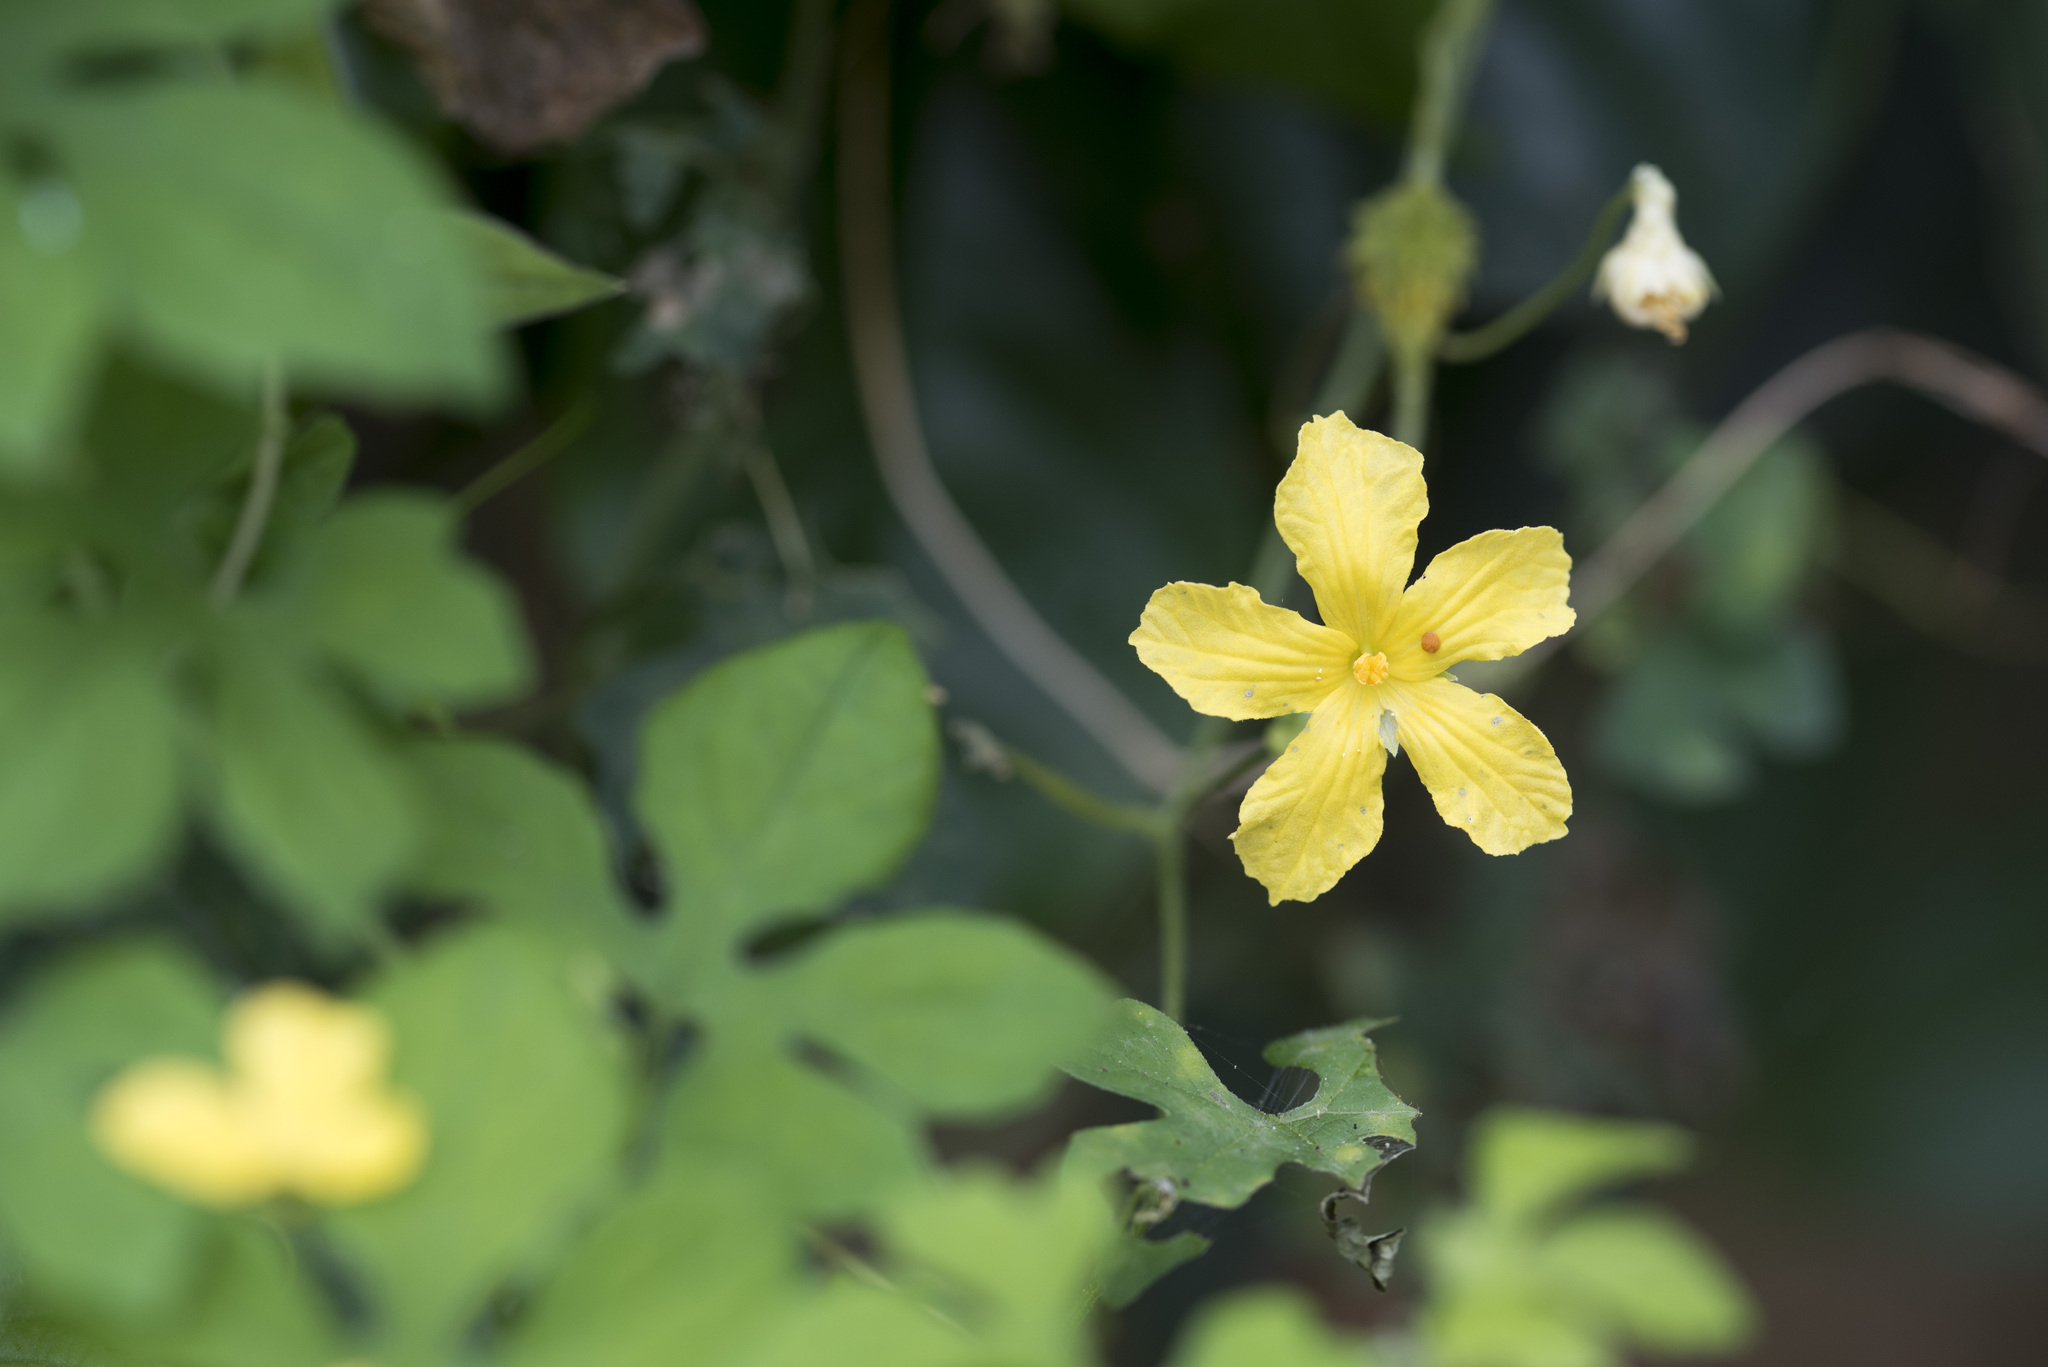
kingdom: Plantae
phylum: Tracheophyta
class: Magnoliopsida
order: Cucurbitales
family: Cucurbitaceae
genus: Momordica
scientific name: Momordica charantia
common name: Balsampear
